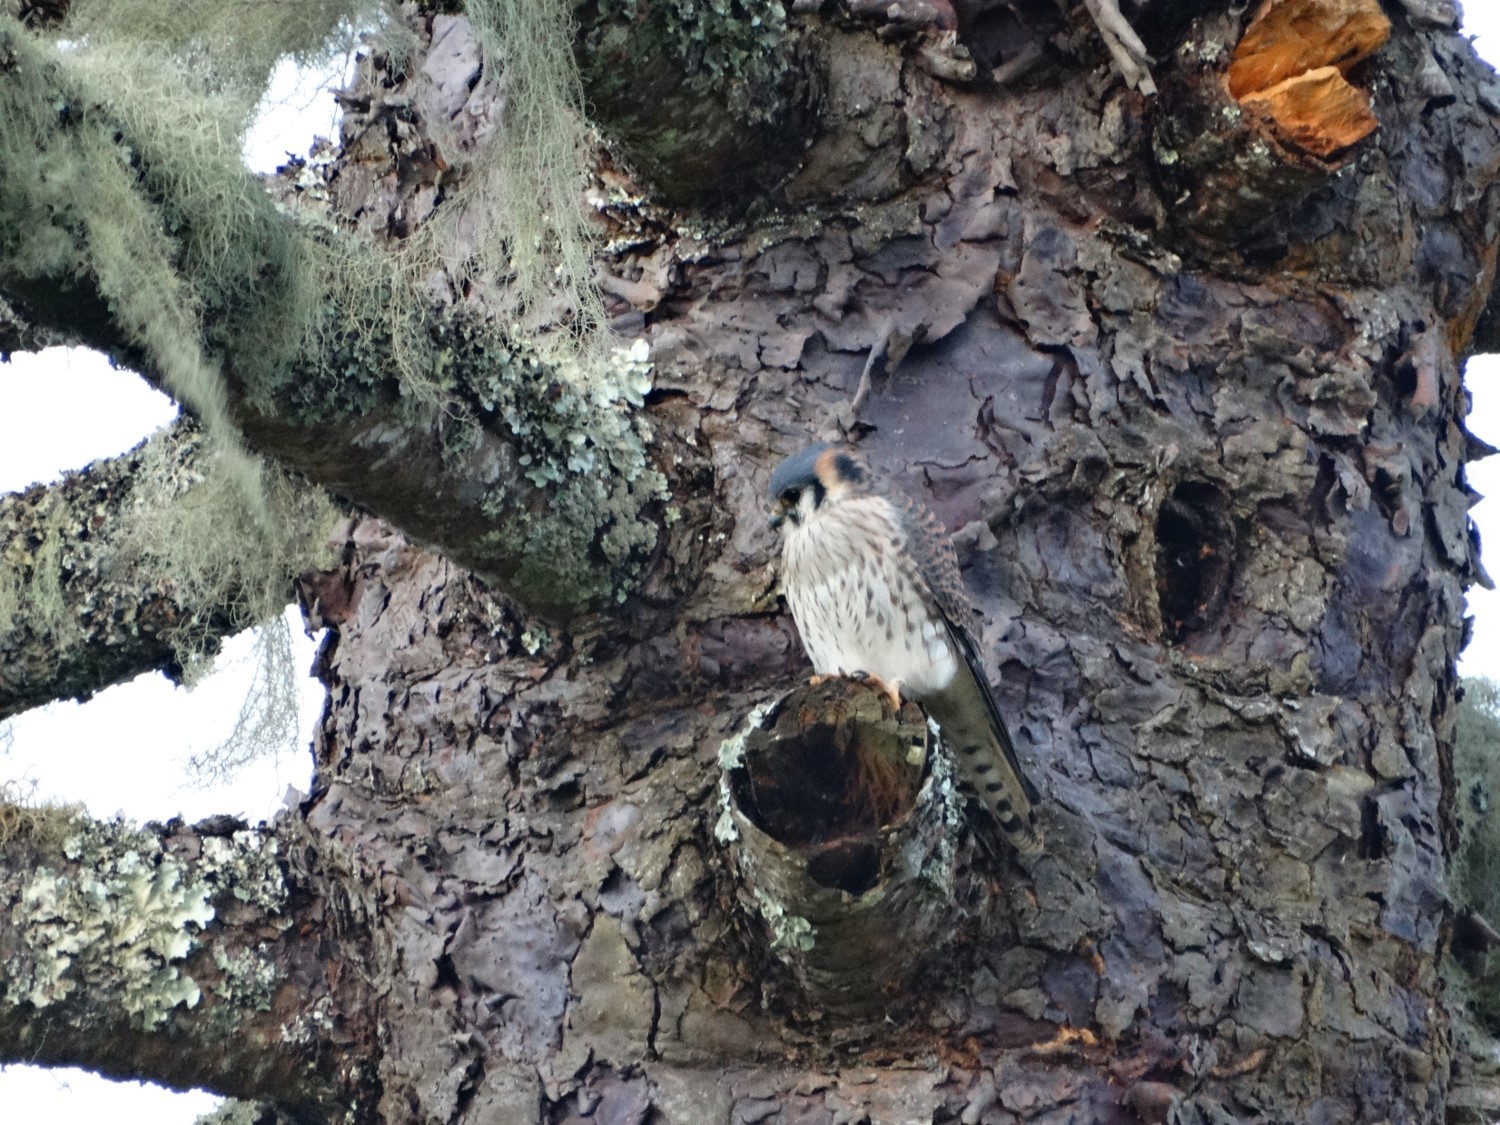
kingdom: Animalia
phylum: Chordata
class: Aves
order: Falconiformes
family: Falconidae
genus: Falco
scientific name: Falco sparverius
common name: American kestrel
